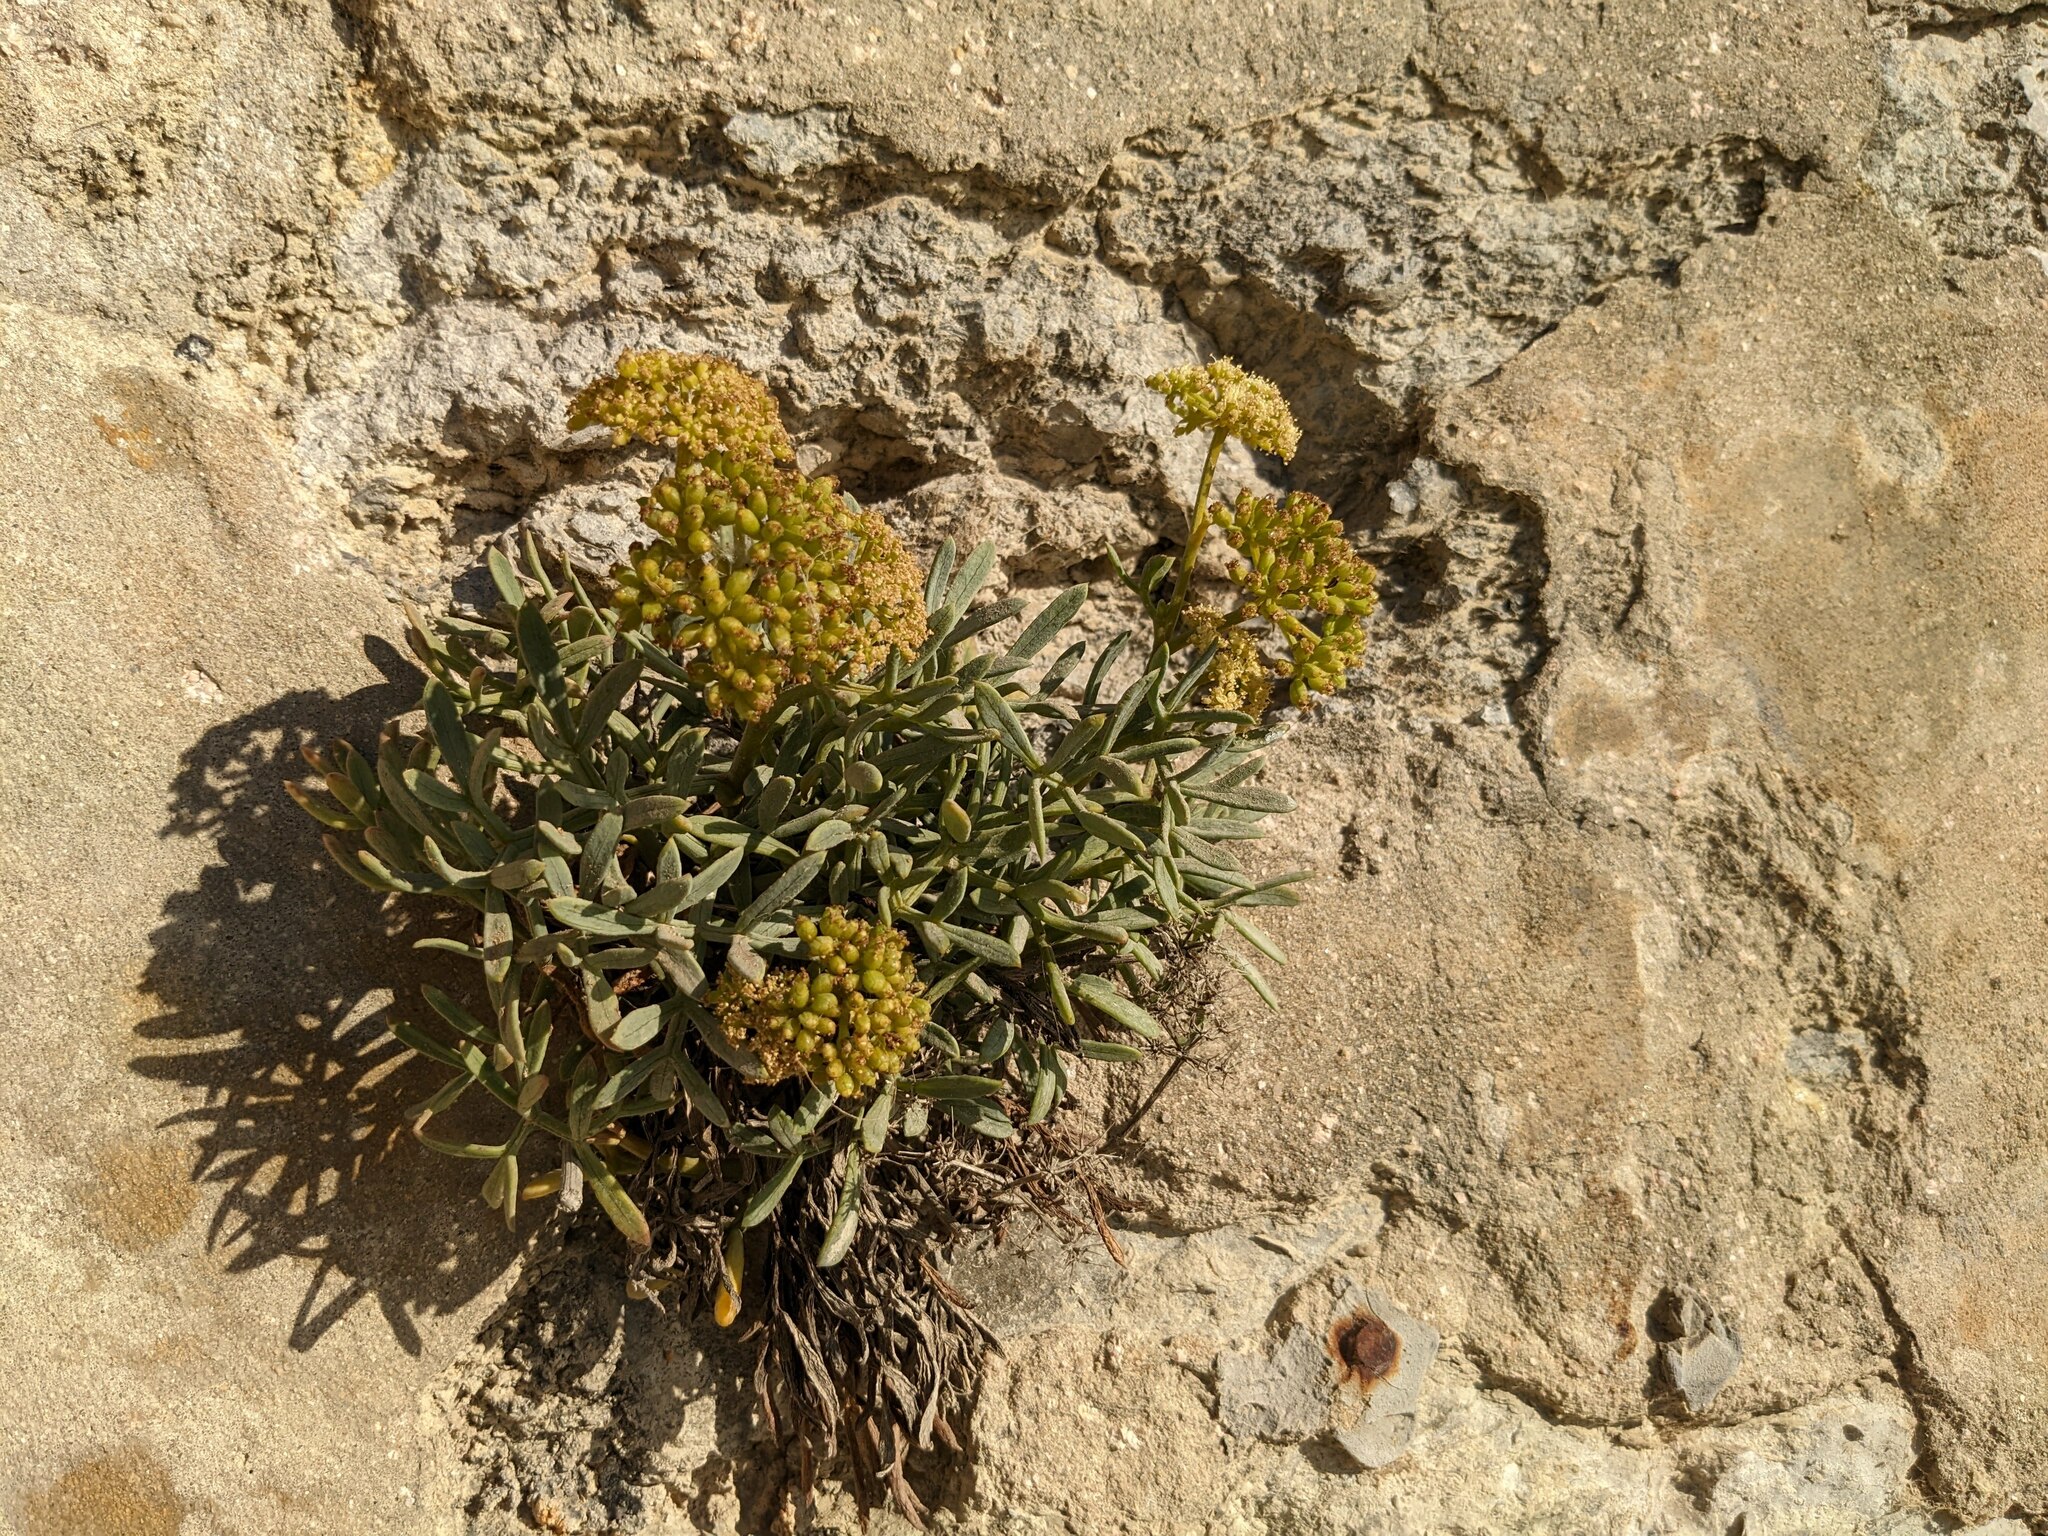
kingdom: Plantae
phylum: Tracheophyta
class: Magnoliopsida
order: Apiales
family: Apiaceae
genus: Crithmum
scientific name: Crithmum maritimum
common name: Rock samphire
